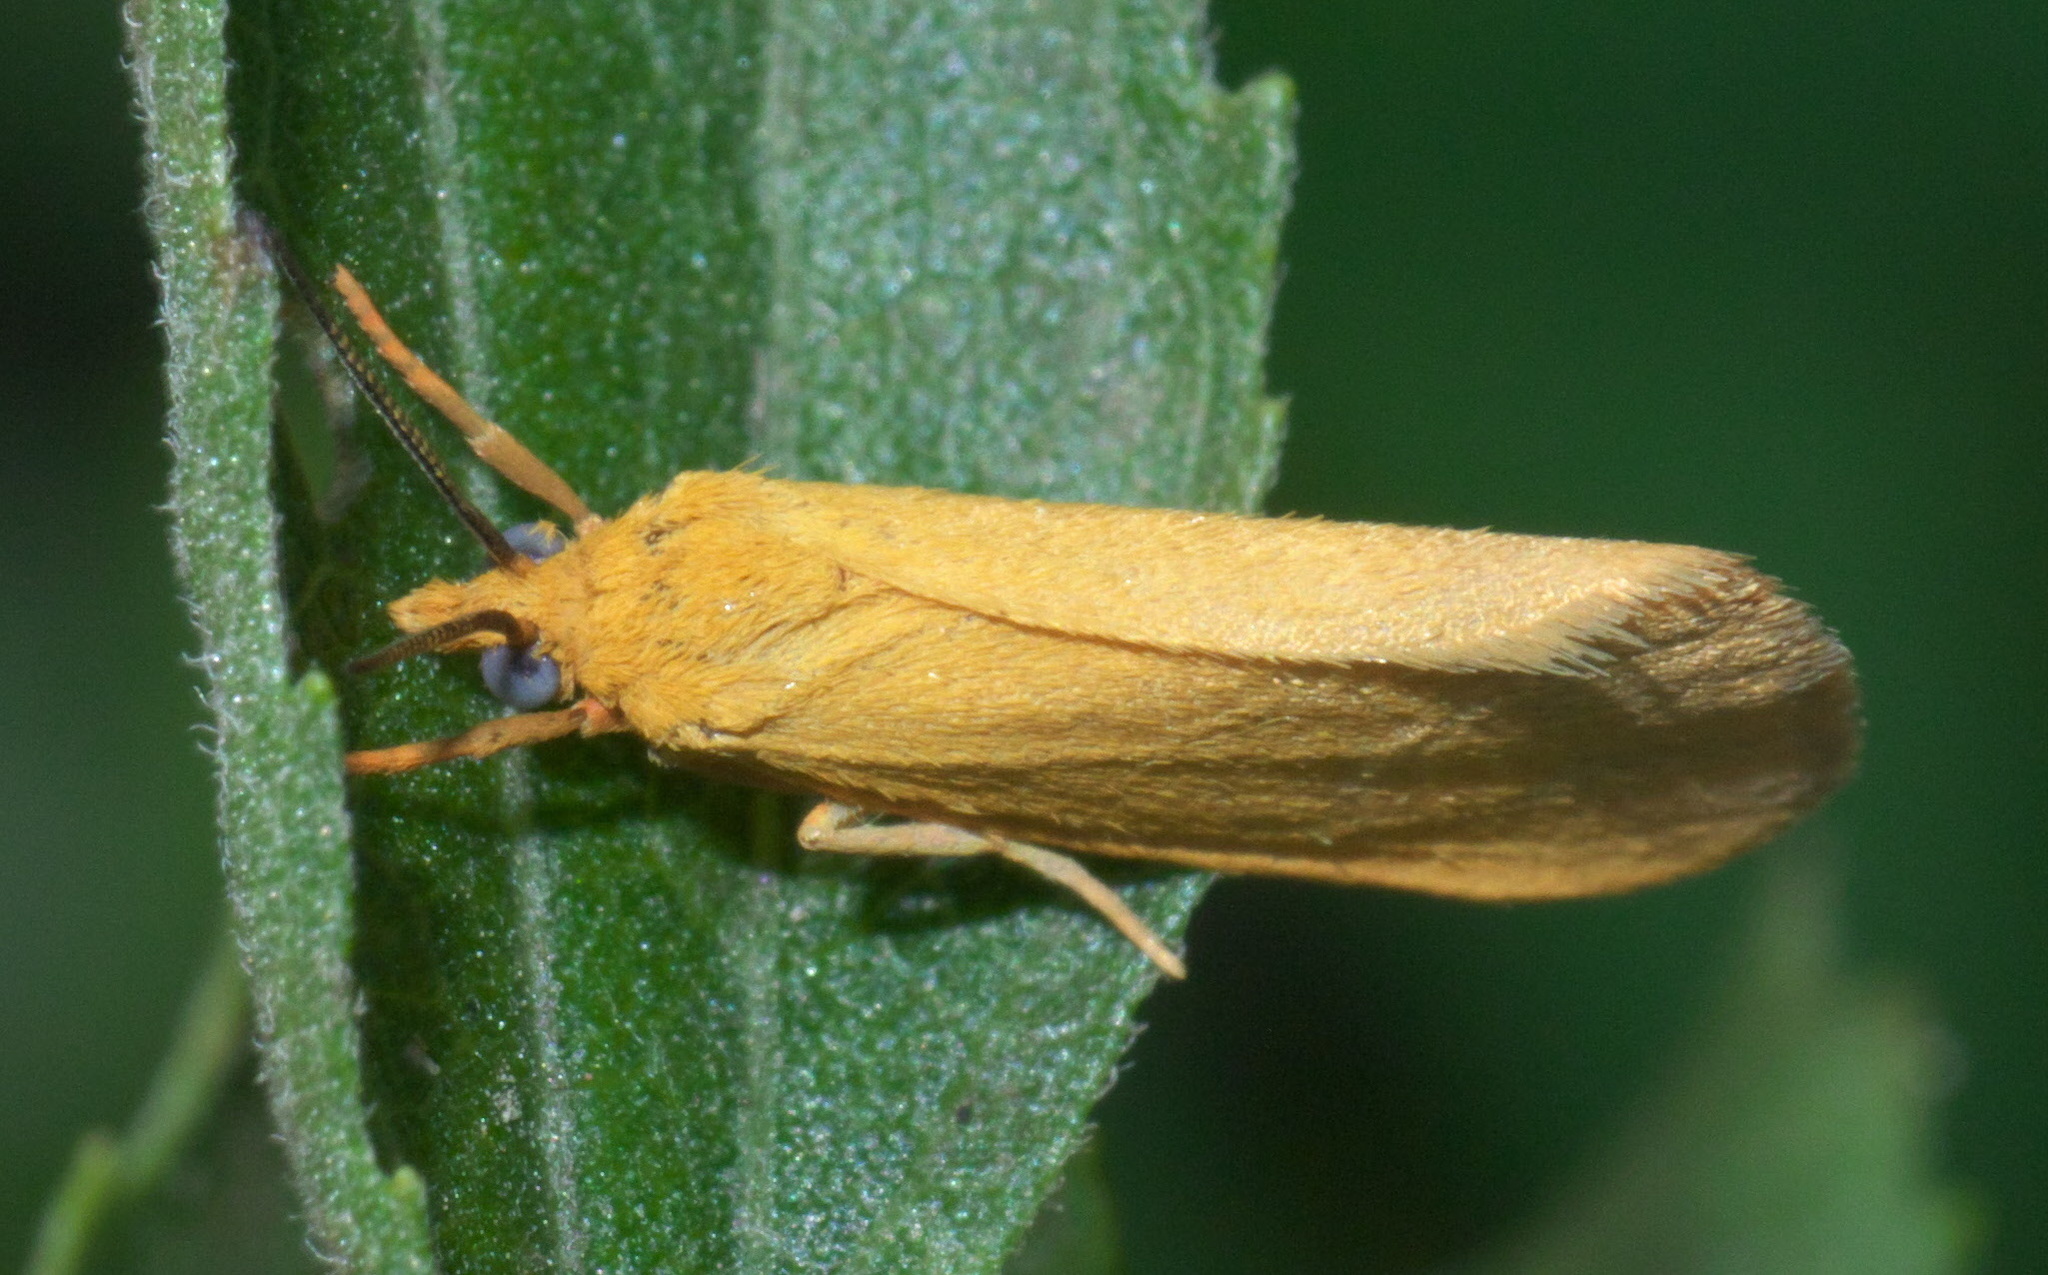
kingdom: Animalia
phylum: Arthropoda
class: Insecta
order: Lepidoptera
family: Erebidae
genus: Virbia
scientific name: Virbia aurantiaca
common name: Orange virbia moth
